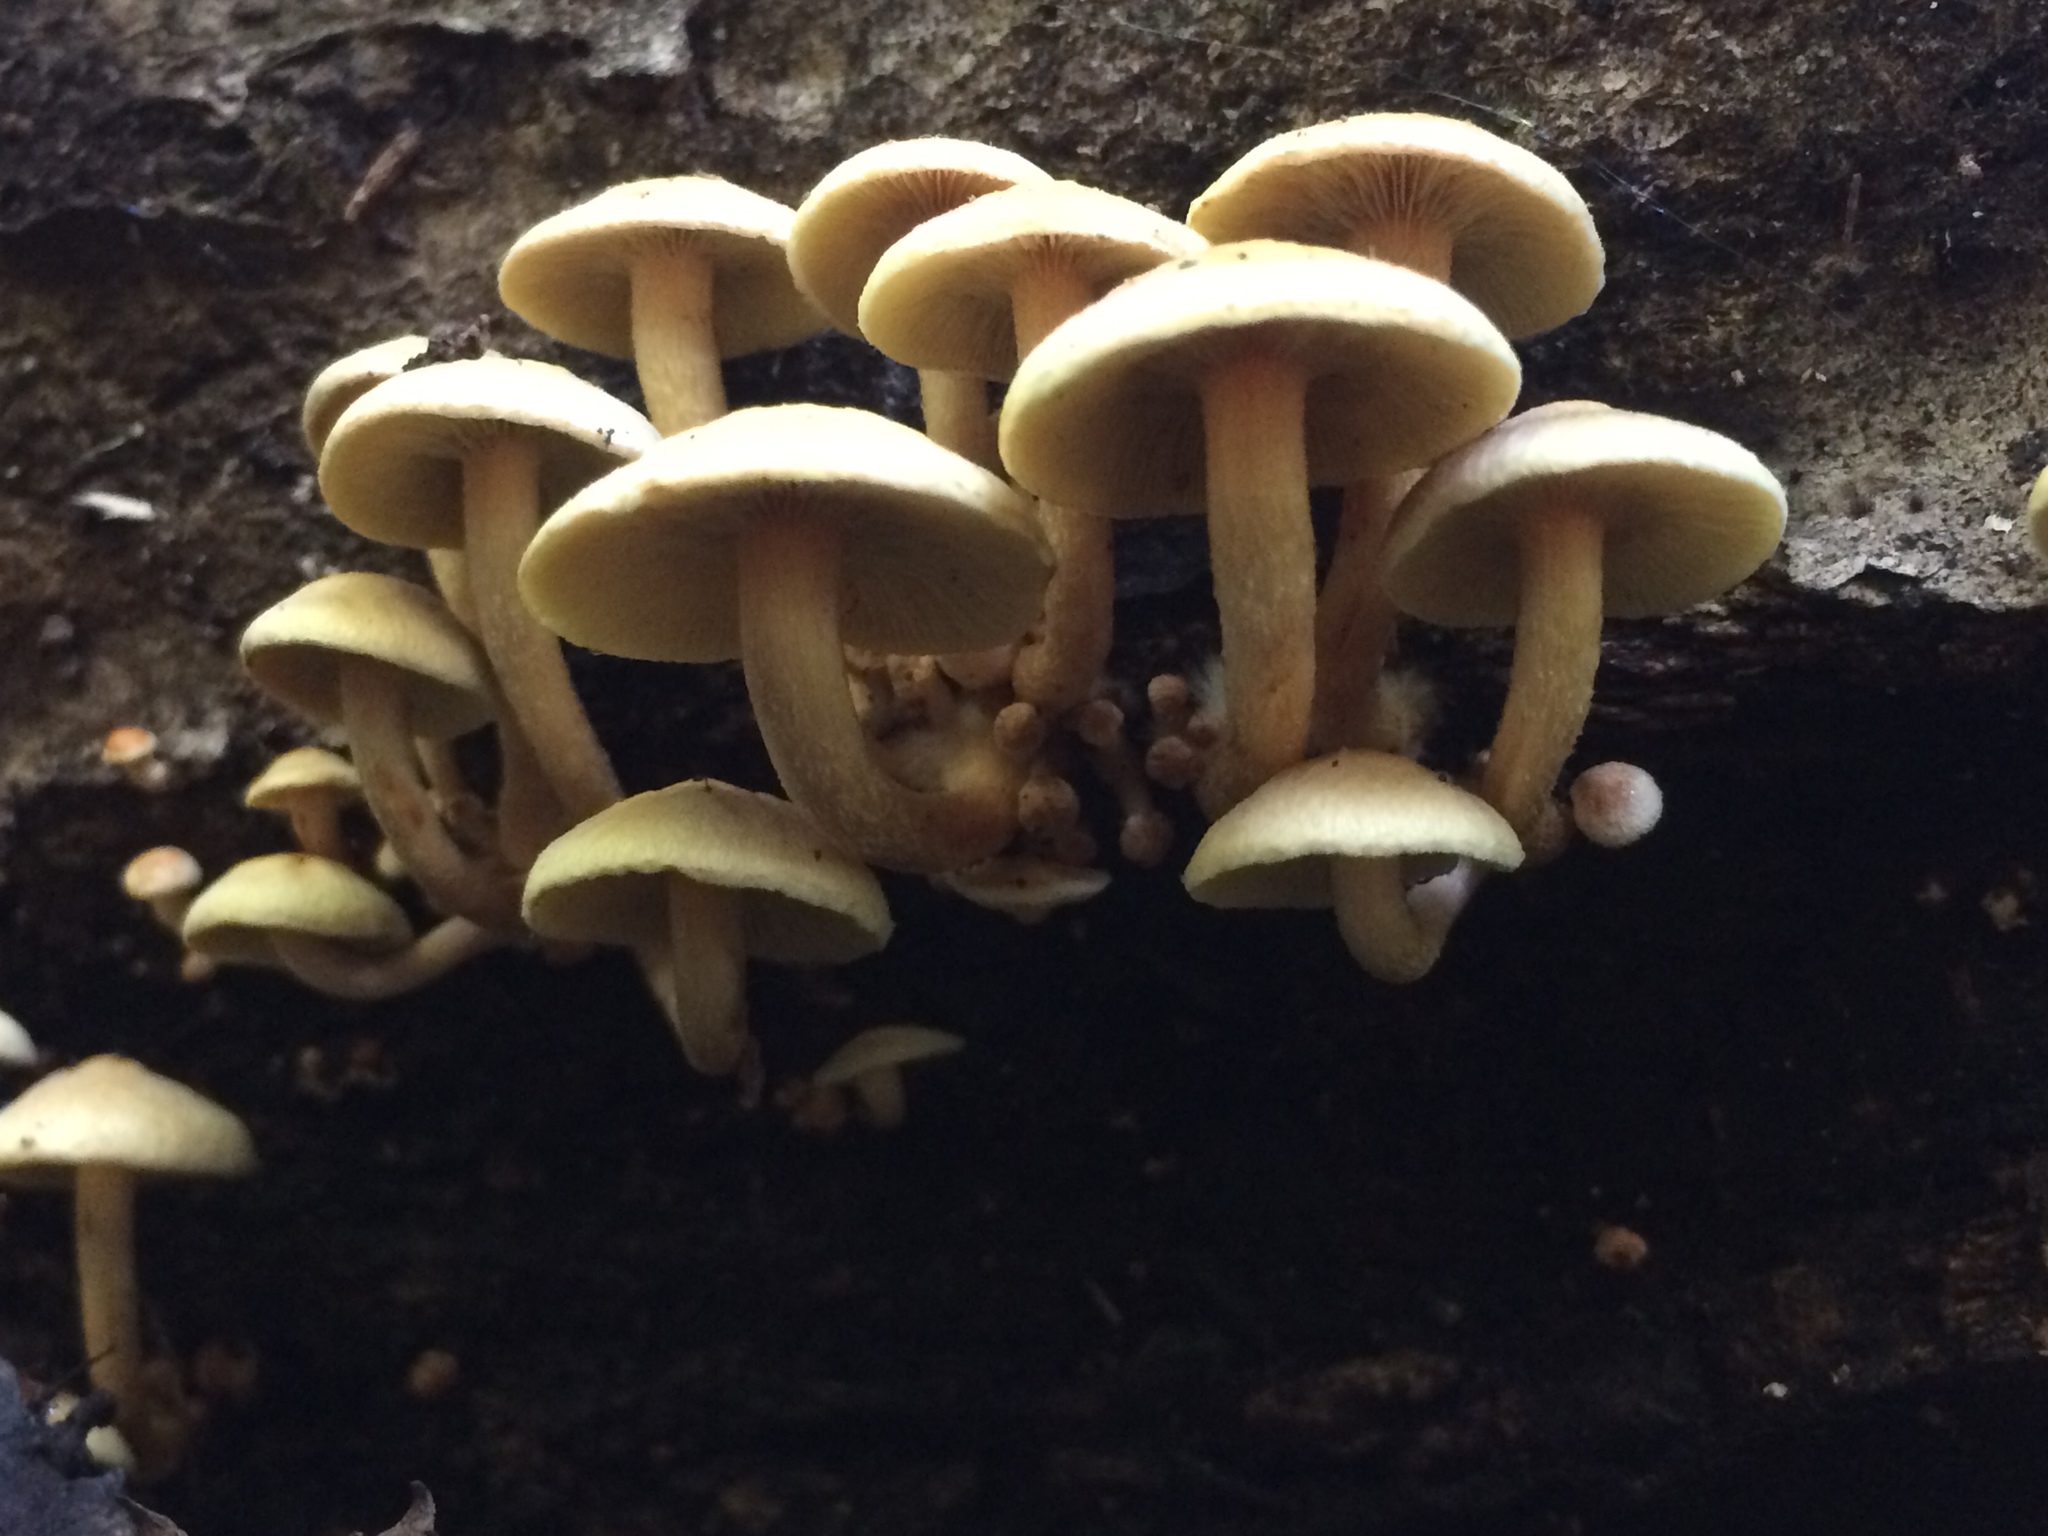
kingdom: Fungi
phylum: Basidiomycota
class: Agaricomycetes
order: Agaricales
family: Strophariaceae
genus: Hypholoma
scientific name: Hypholoma fasciculare
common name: Sulphur tuft
